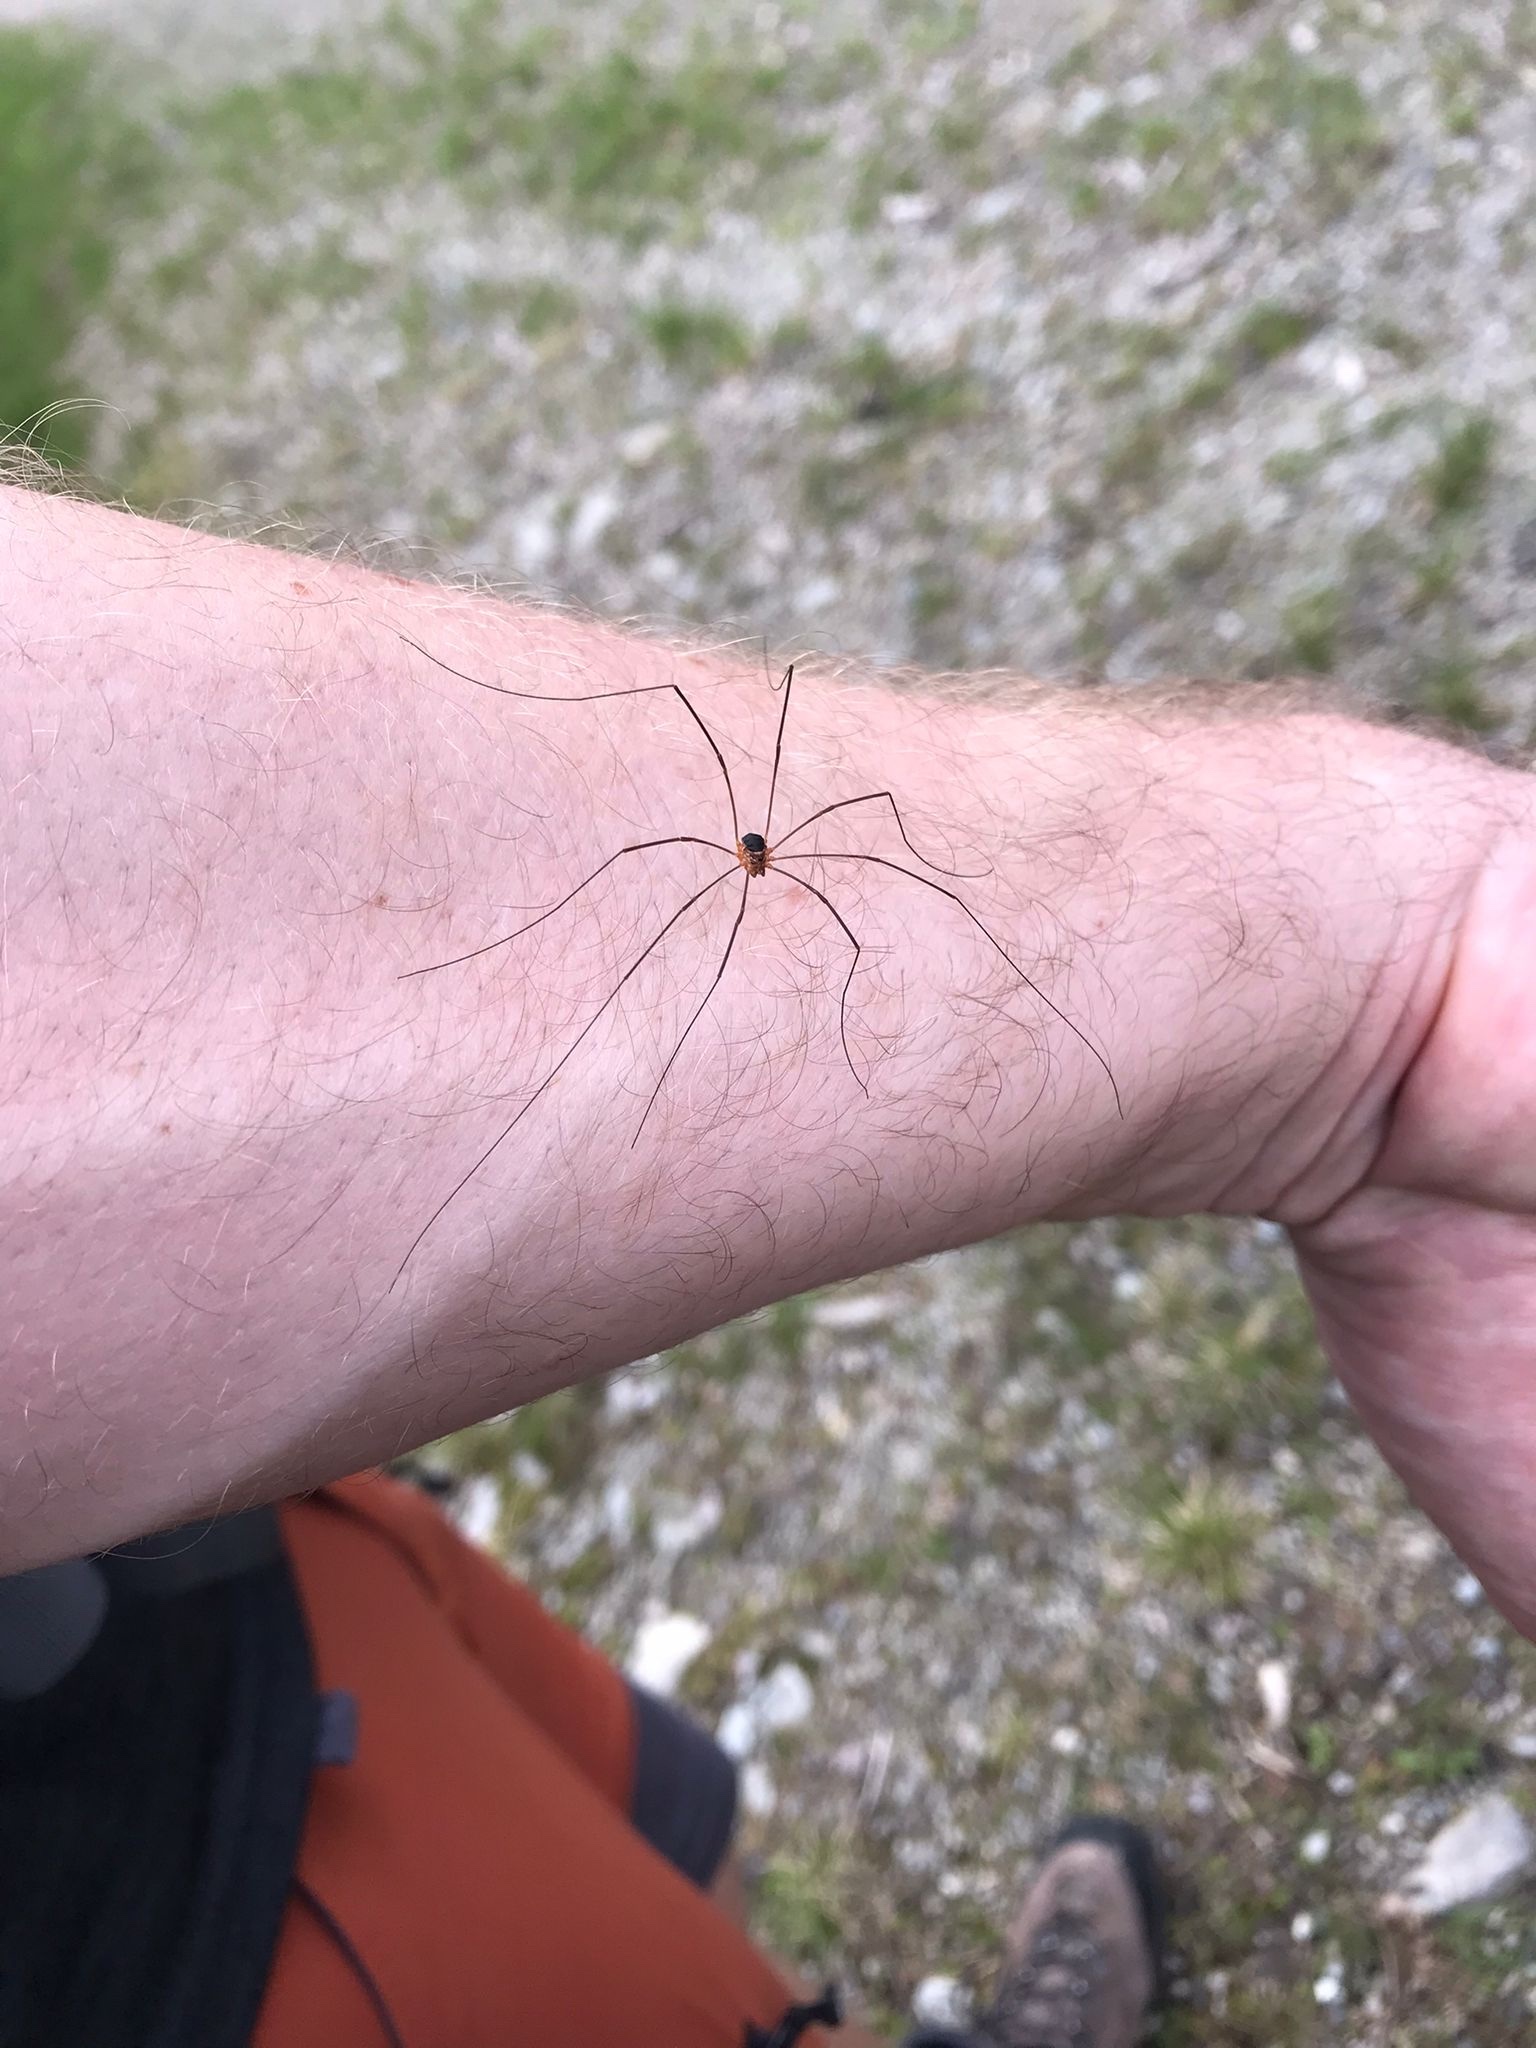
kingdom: Animalia
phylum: Arthropoda
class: Arachnida
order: Opiliones
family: Phalangiidae
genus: Amilenus
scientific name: Amilenus aurantiacus
